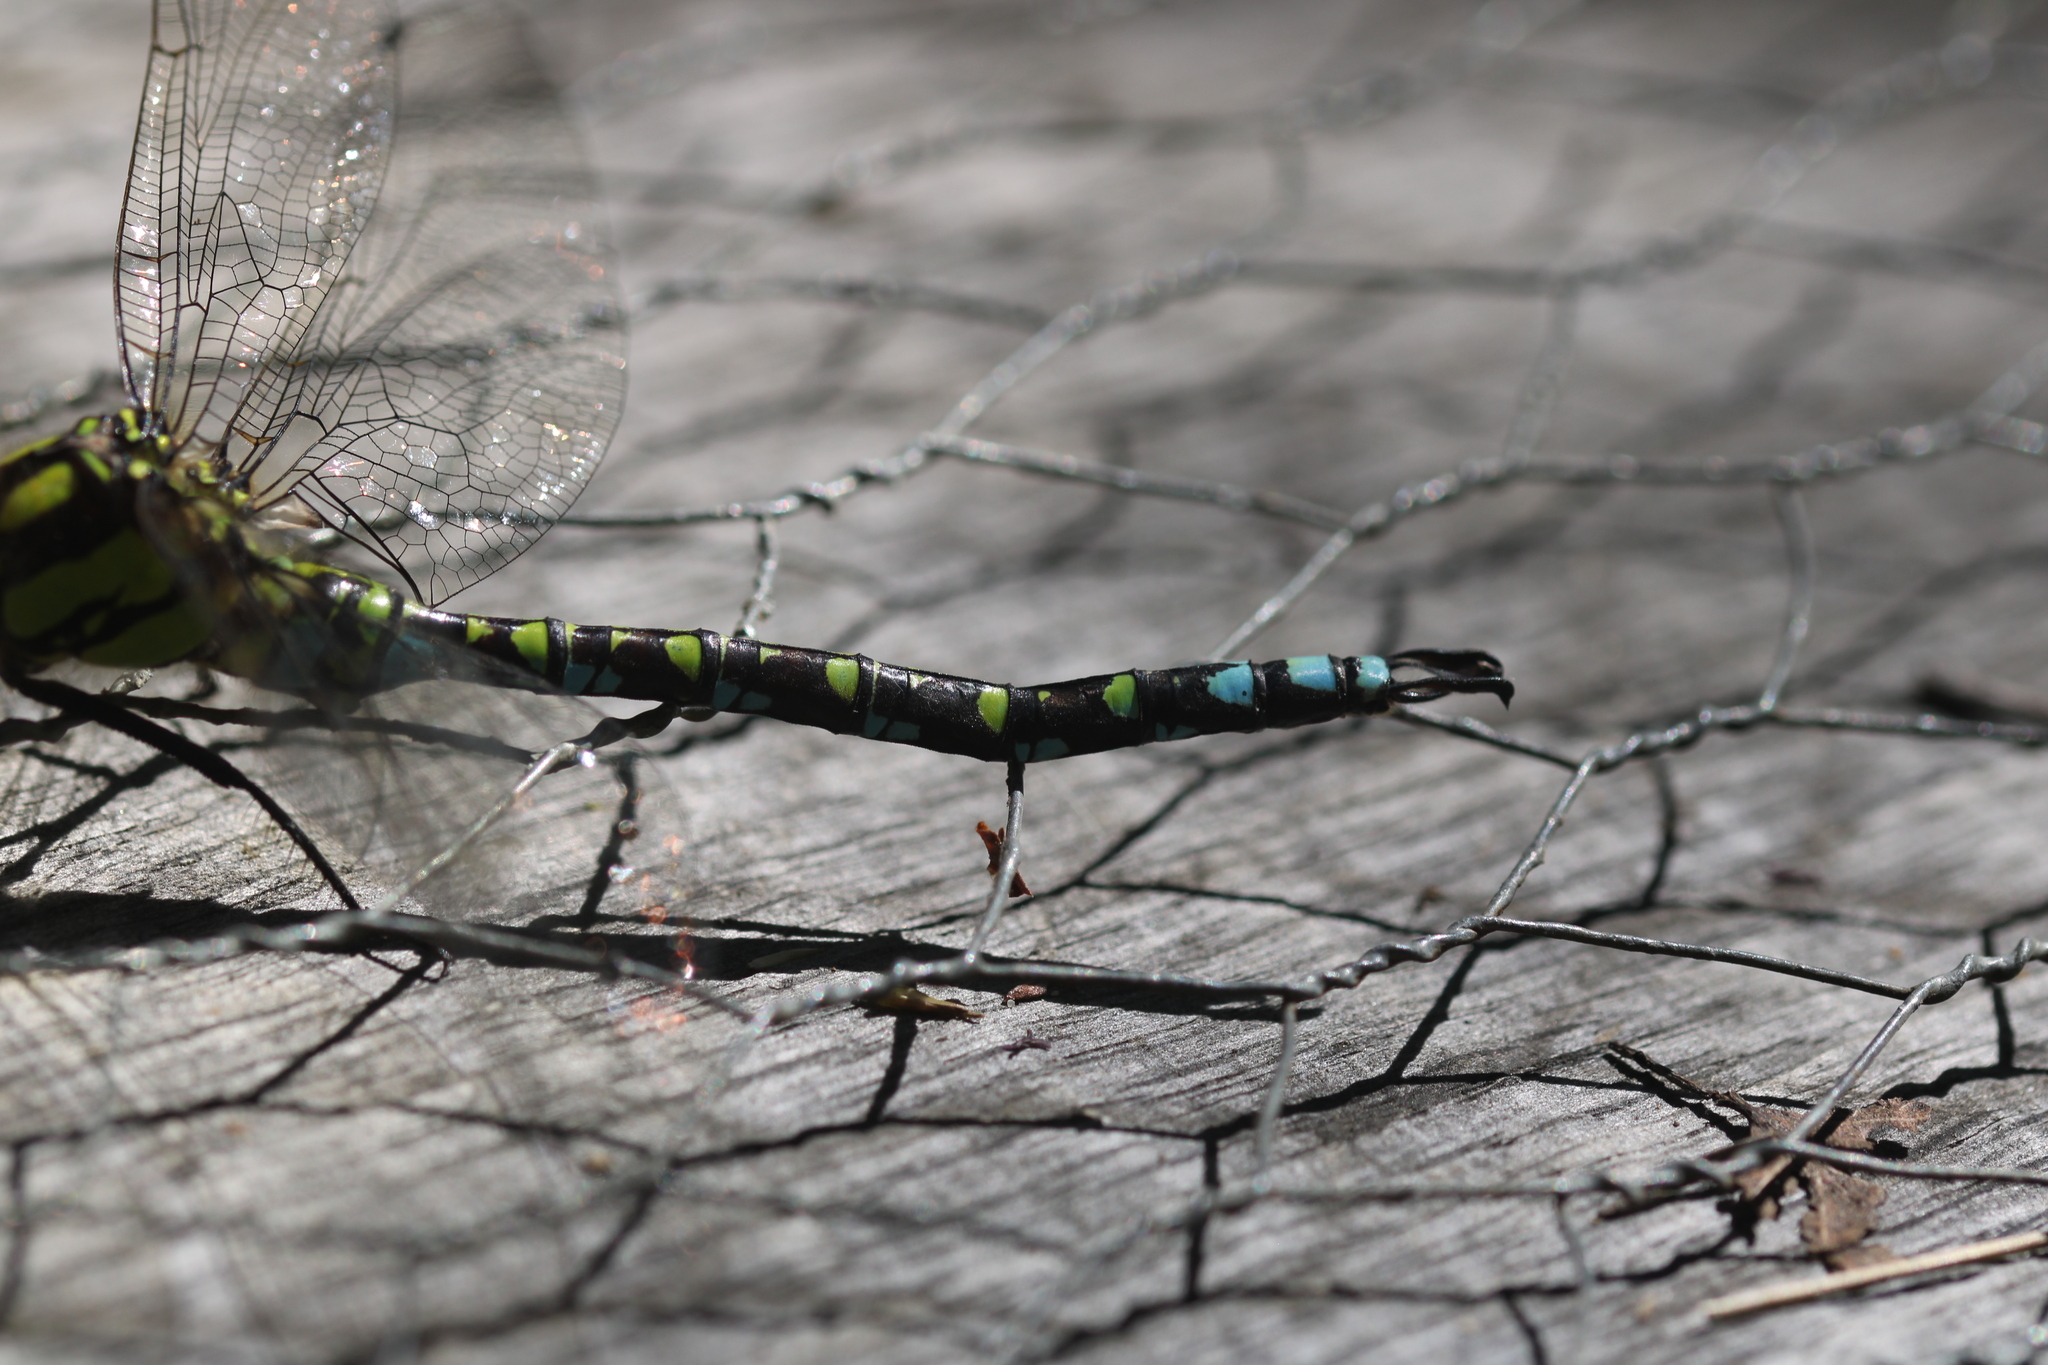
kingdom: Animalia
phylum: Arthropoda
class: Insecta
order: Odonata
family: Aeshnidae
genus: Aeshna
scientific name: Aeshna cyanea
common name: Southern hawker
